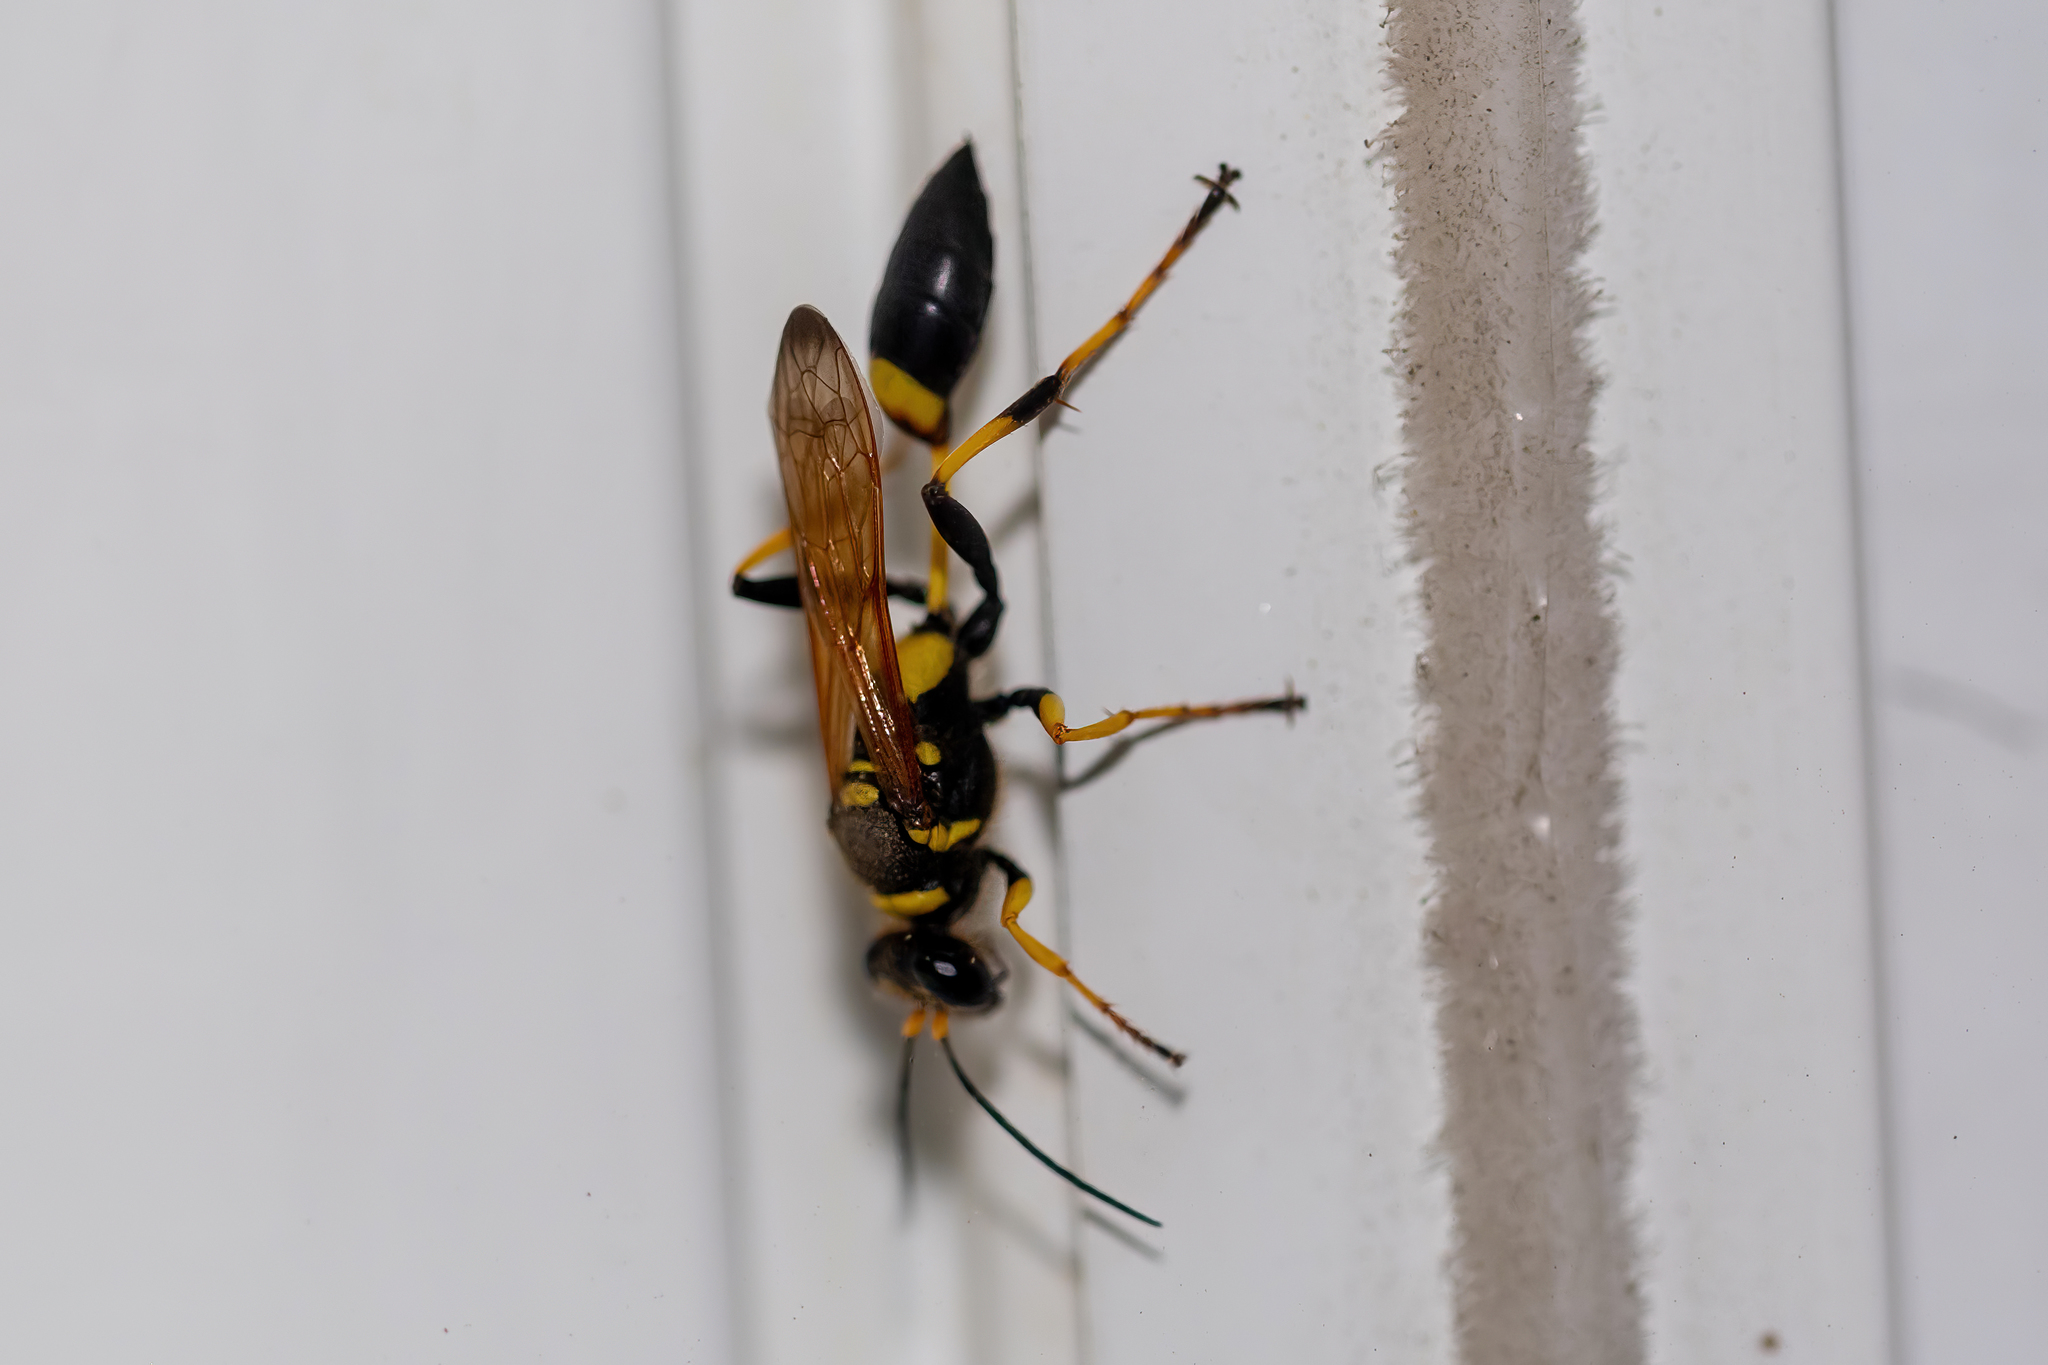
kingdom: Animalia
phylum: Arthropoda
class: Insecta
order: Hymenoptera
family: Sphecidae
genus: Sceliphron
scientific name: Sceliphron caementarium
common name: Mud dauber
